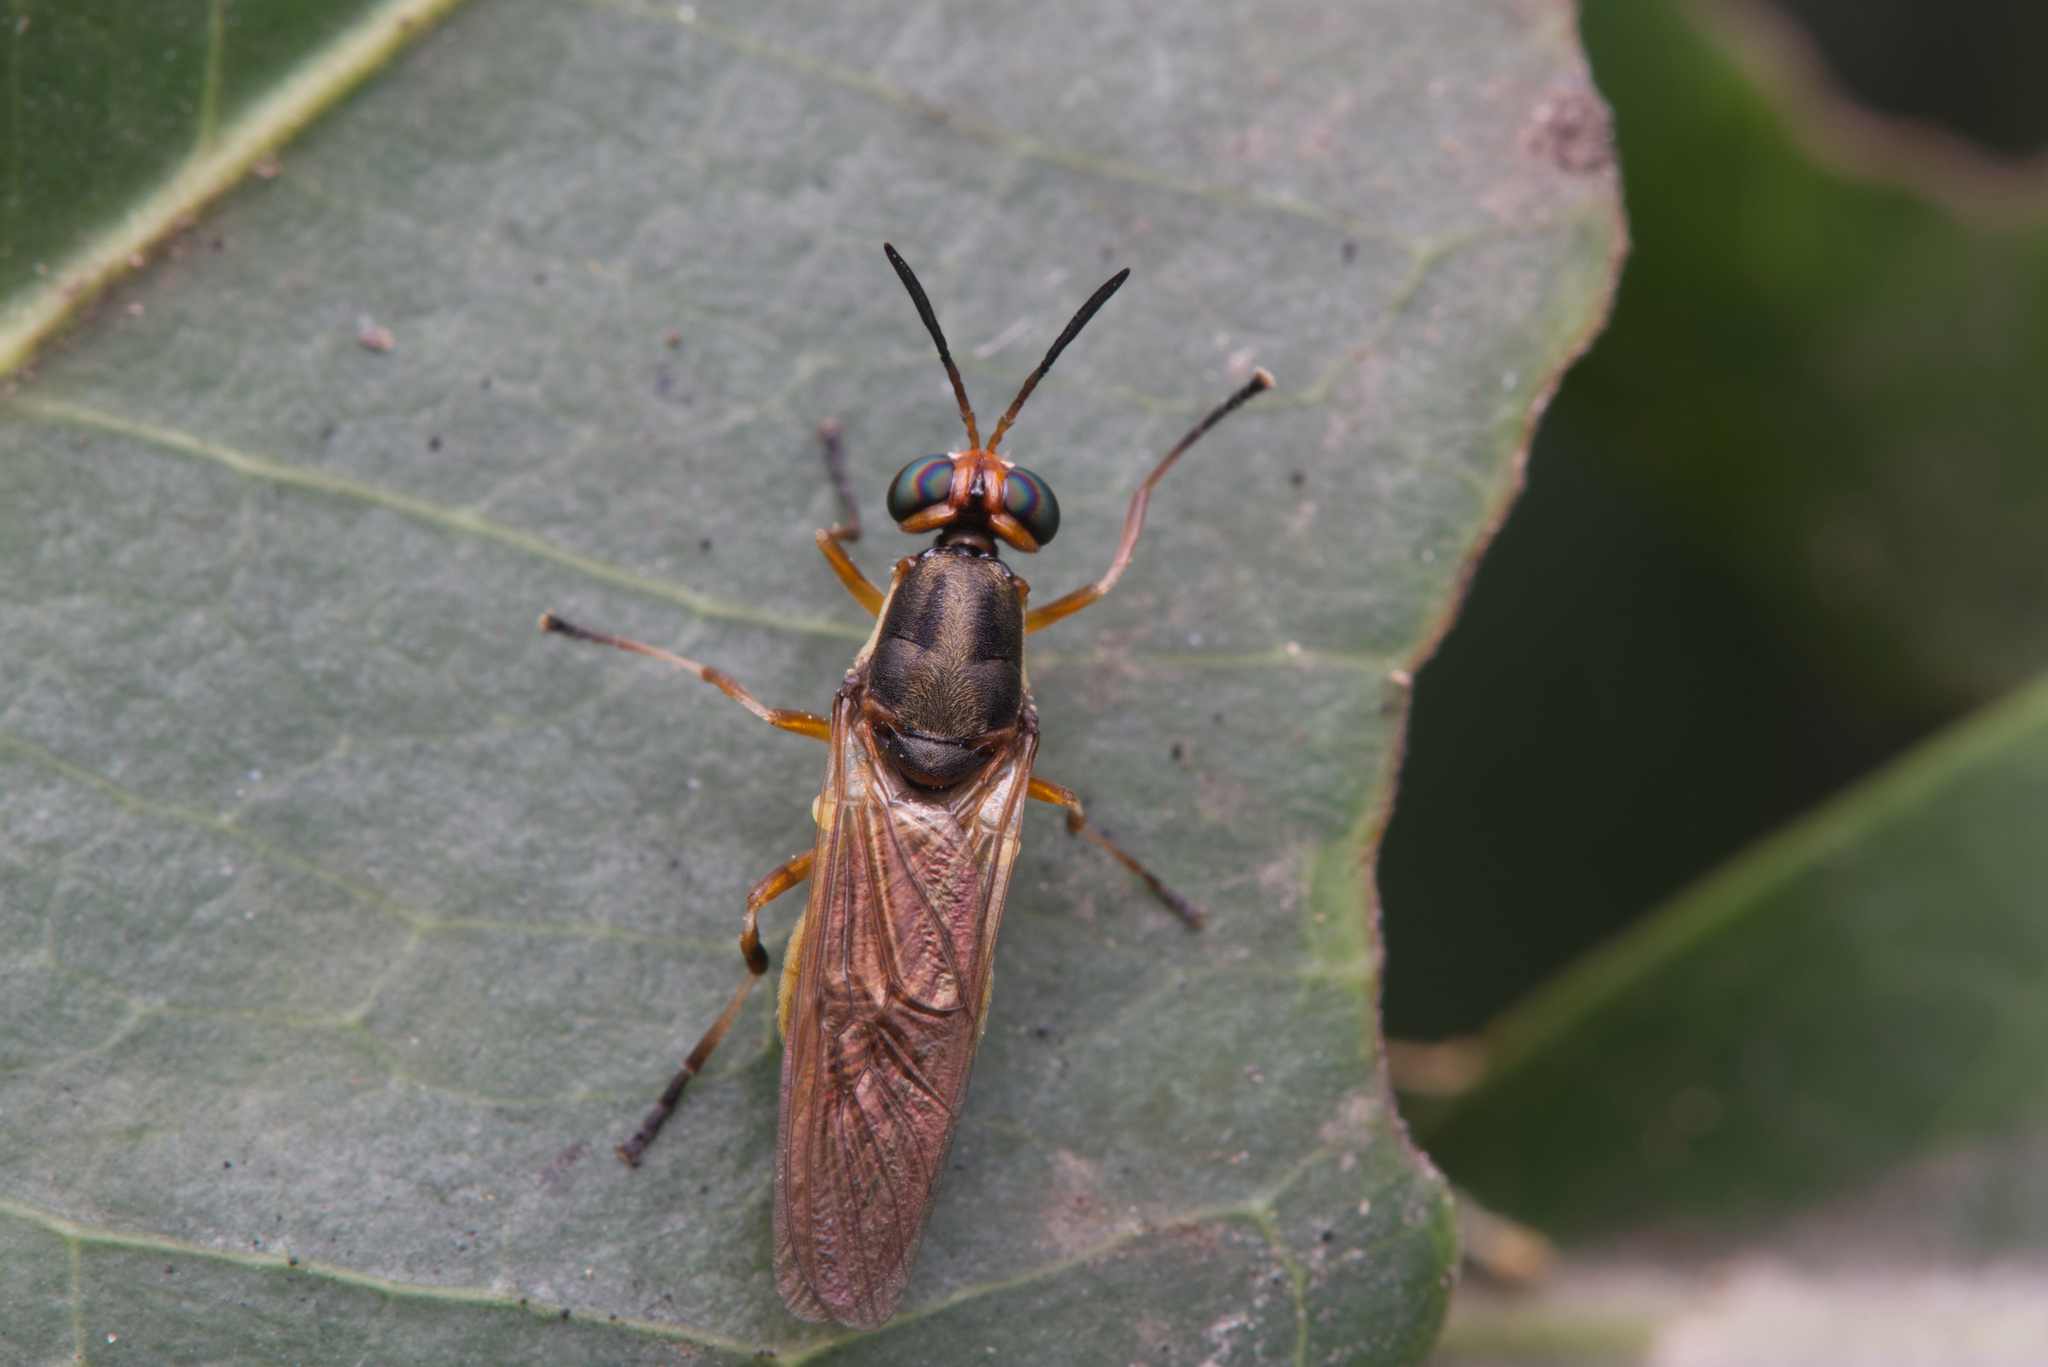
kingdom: Animalia
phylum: Arthropoda
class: Insecta
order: Diptera
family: Stratiomyidae
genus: Lagenosoma
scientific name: Lagenosoma dispar
